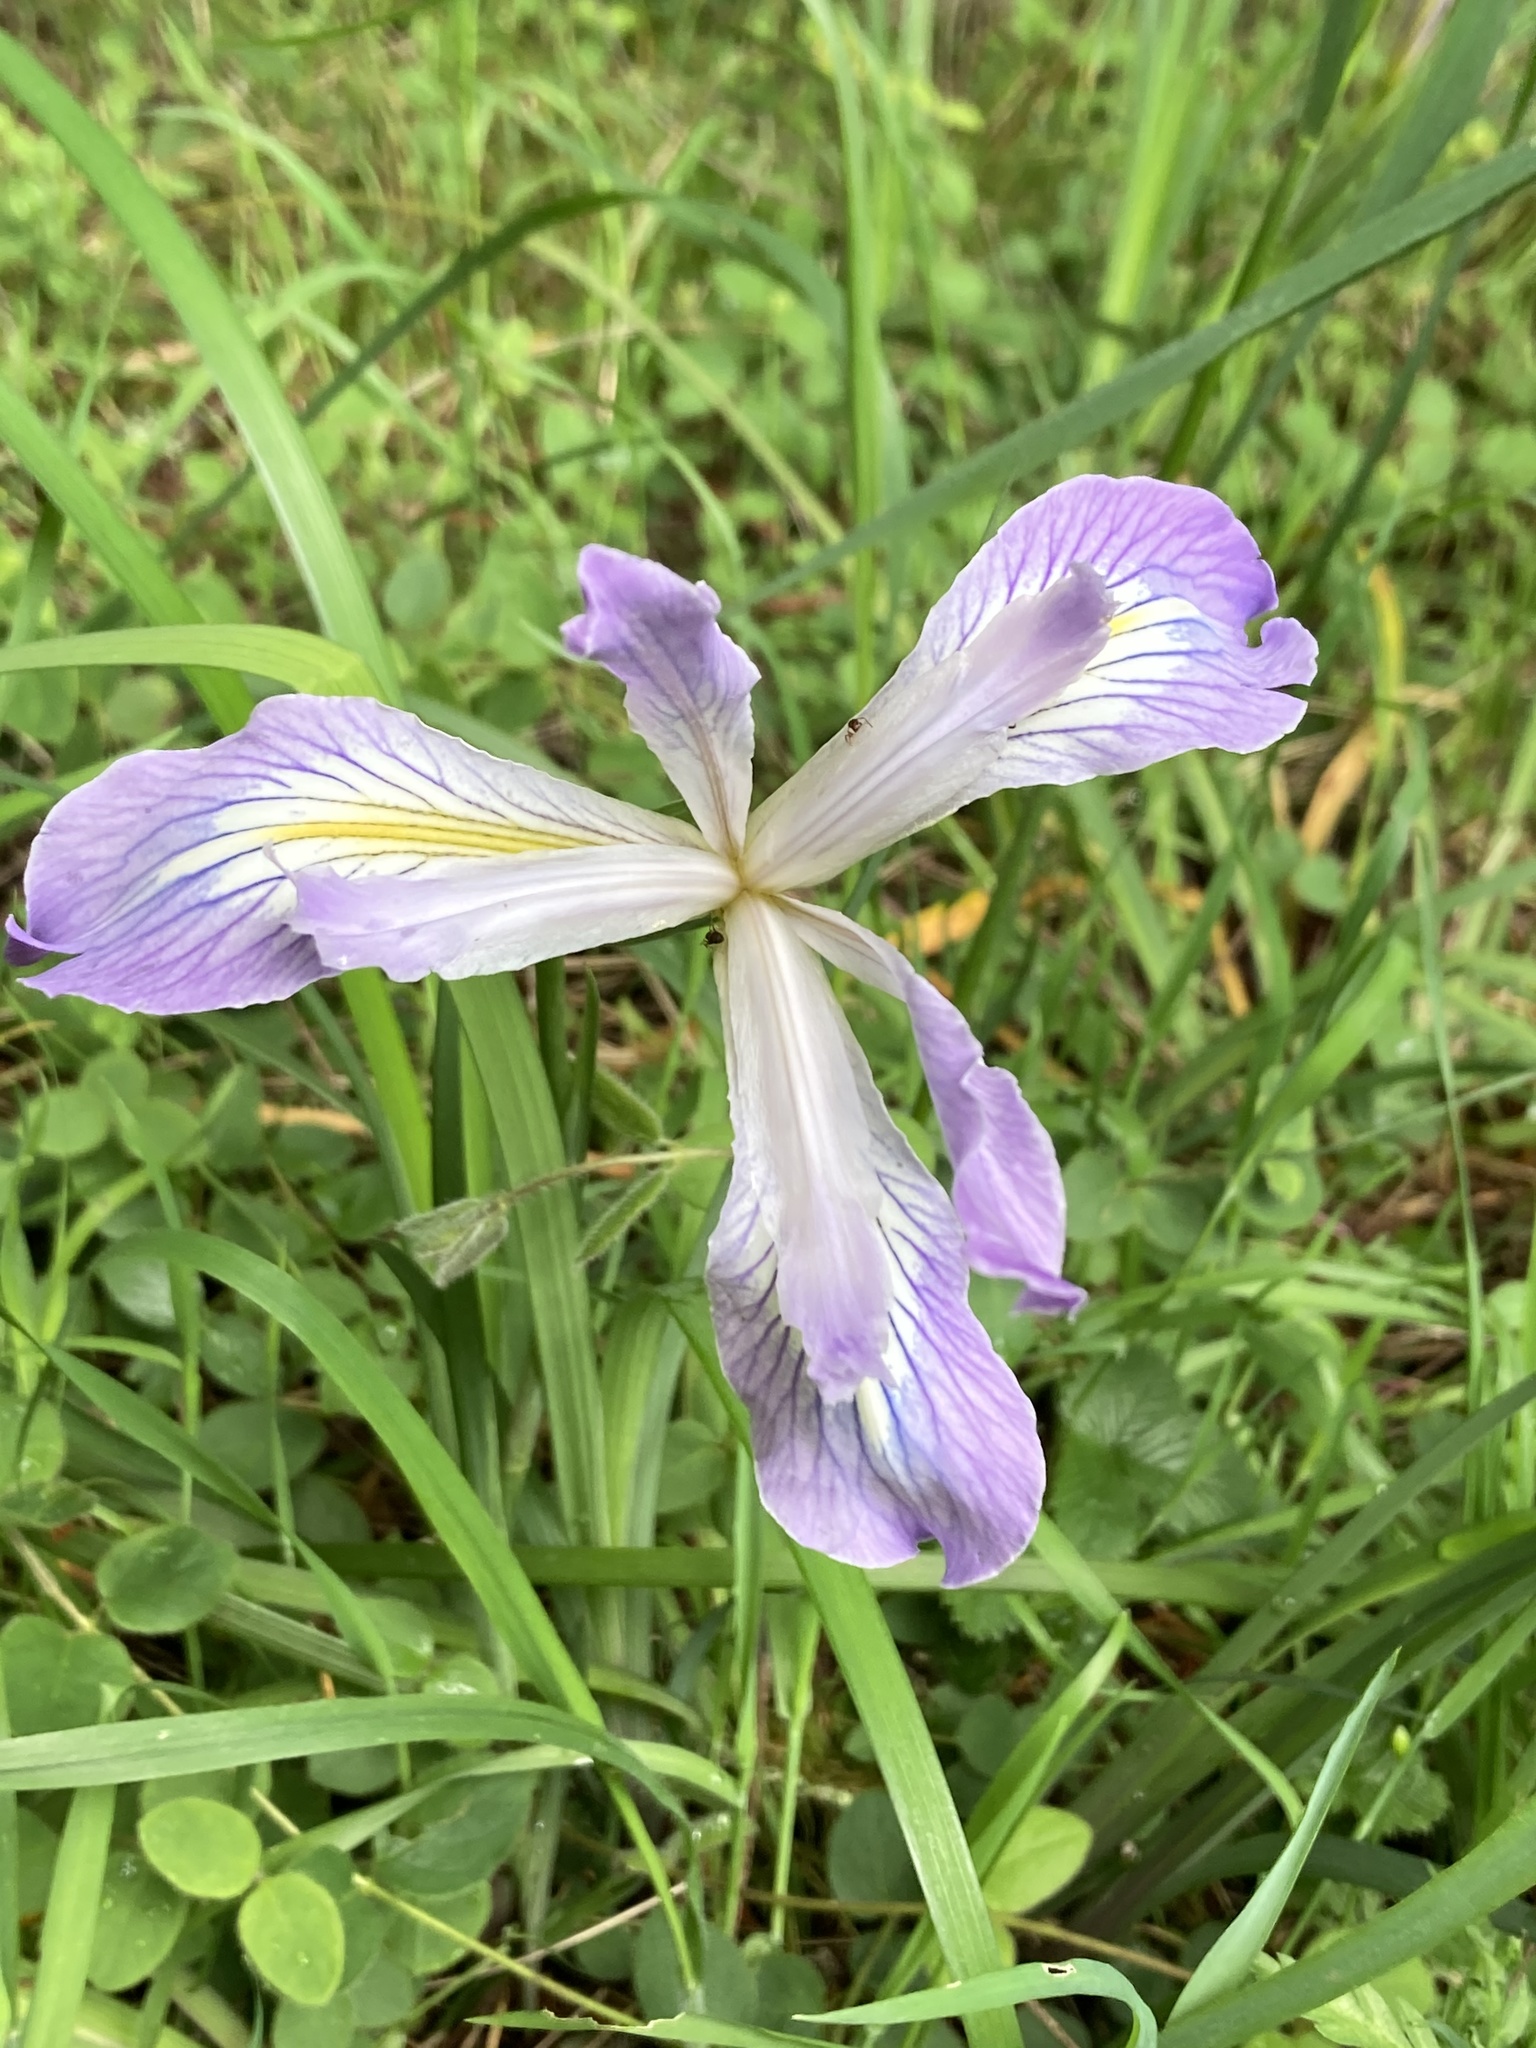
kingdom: Plantae
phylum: Tracheophyta
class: Liliopsida
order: Asparagales
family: Iridaceae
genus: Iris
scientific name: Iris douglasiana
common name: Marin iris
